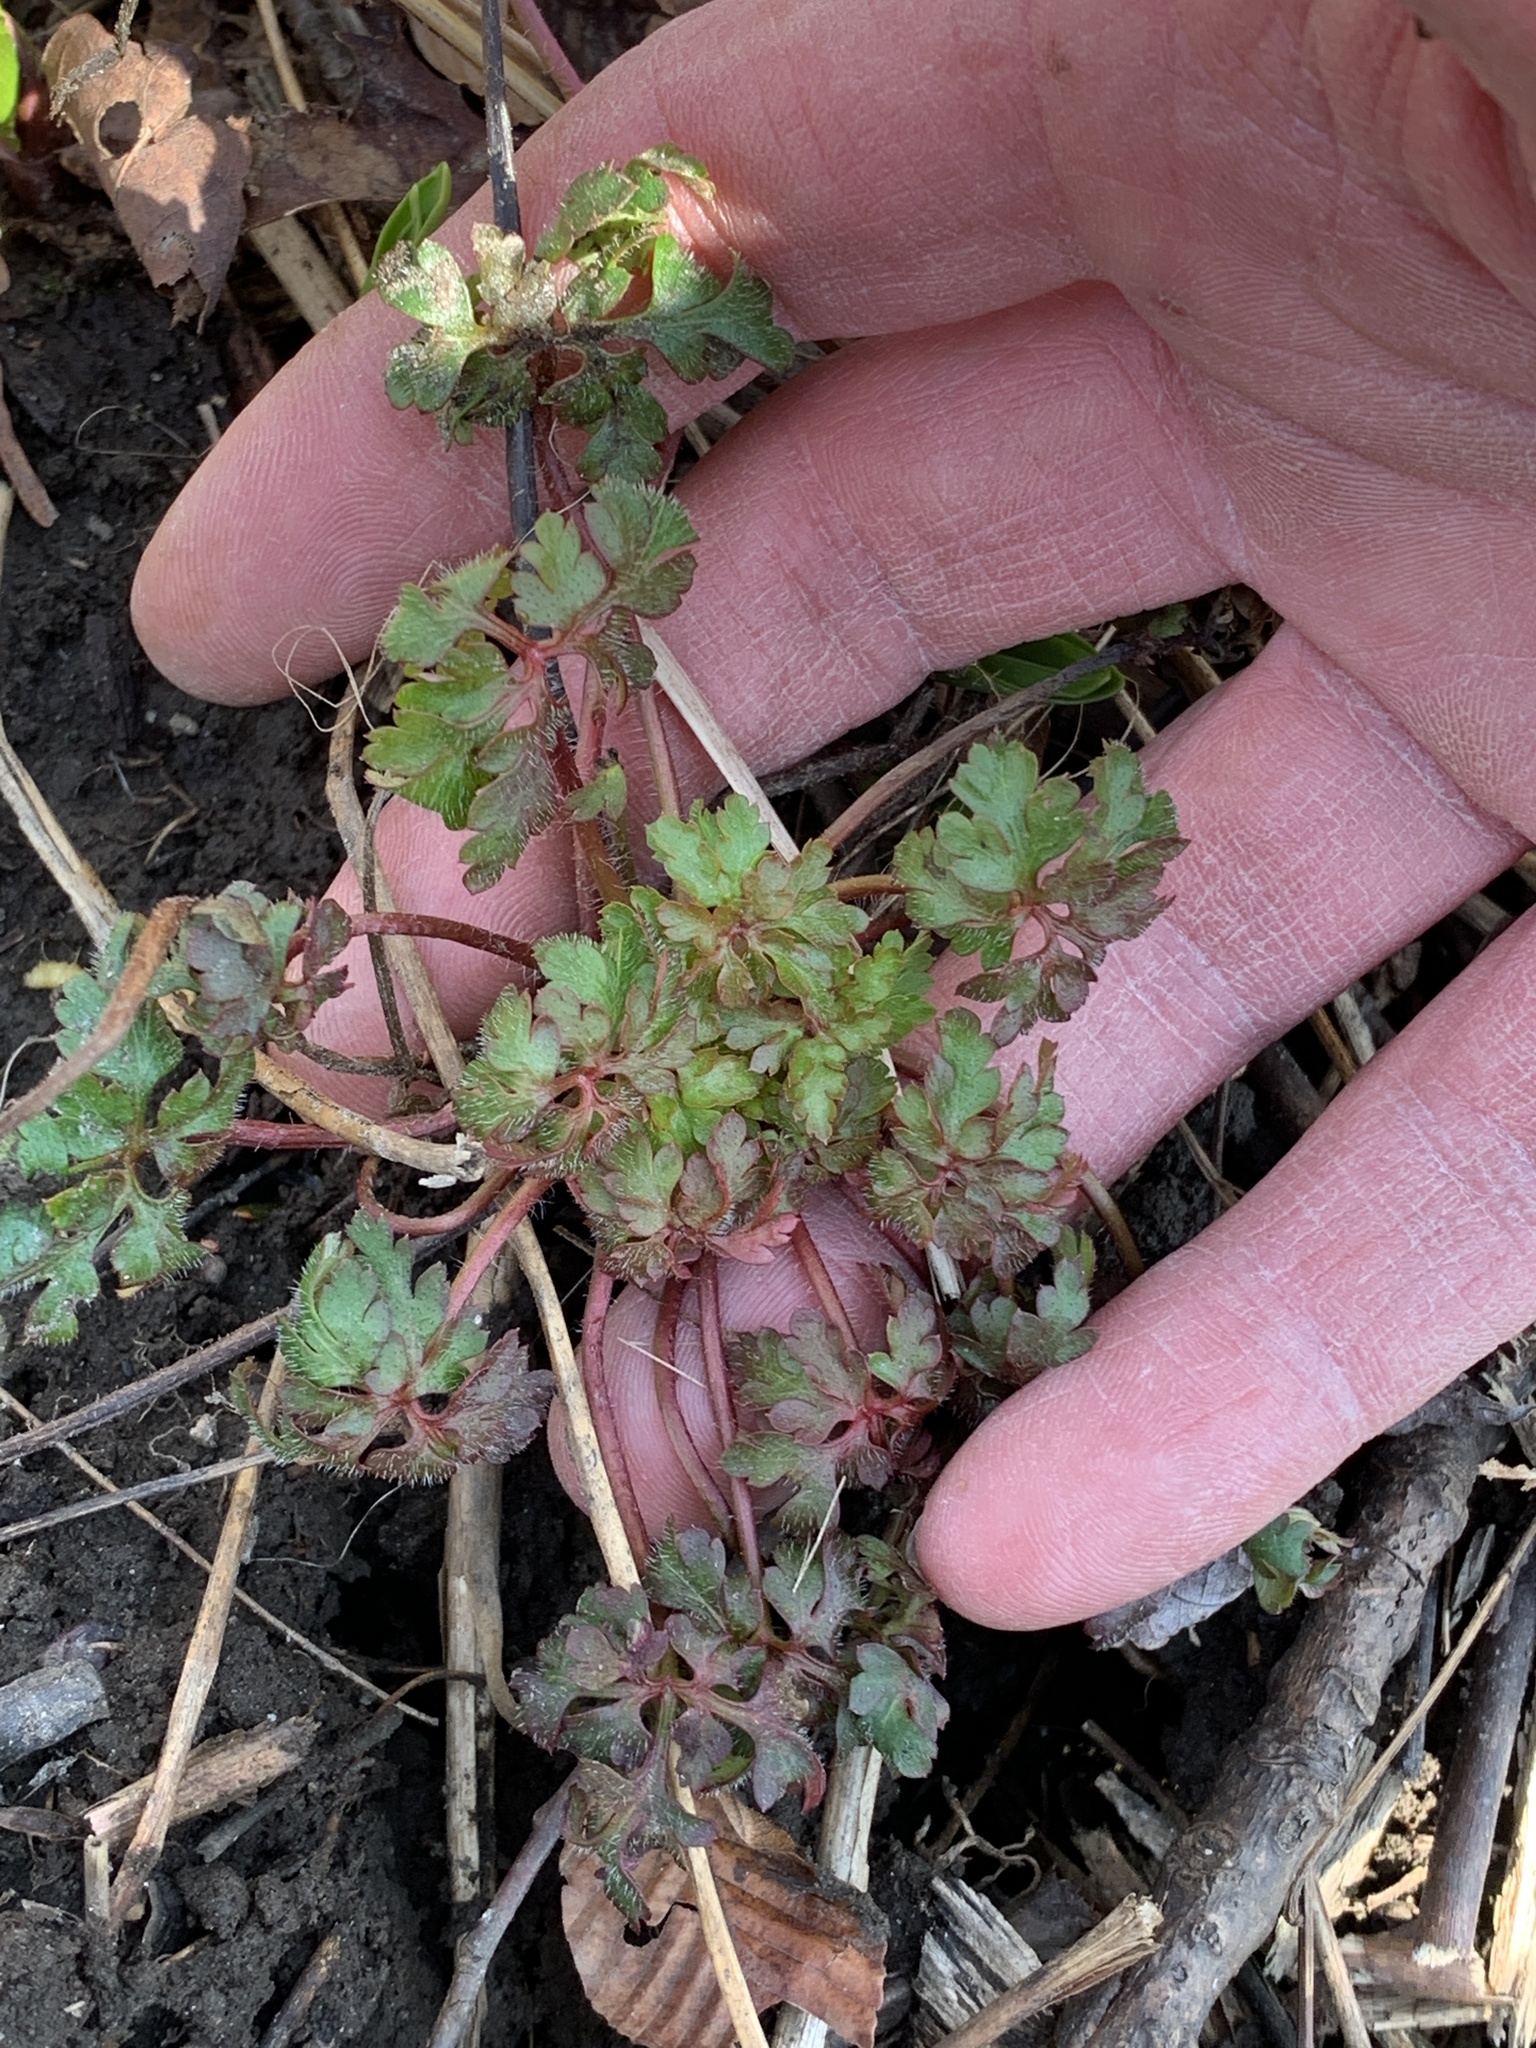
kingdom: Plantae
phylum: Tracheophyta
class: Magnoliopsida
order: Geraniales
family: Geraniaceae
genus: Geranium
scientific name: Geranium robertianum
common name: Herb-robert
